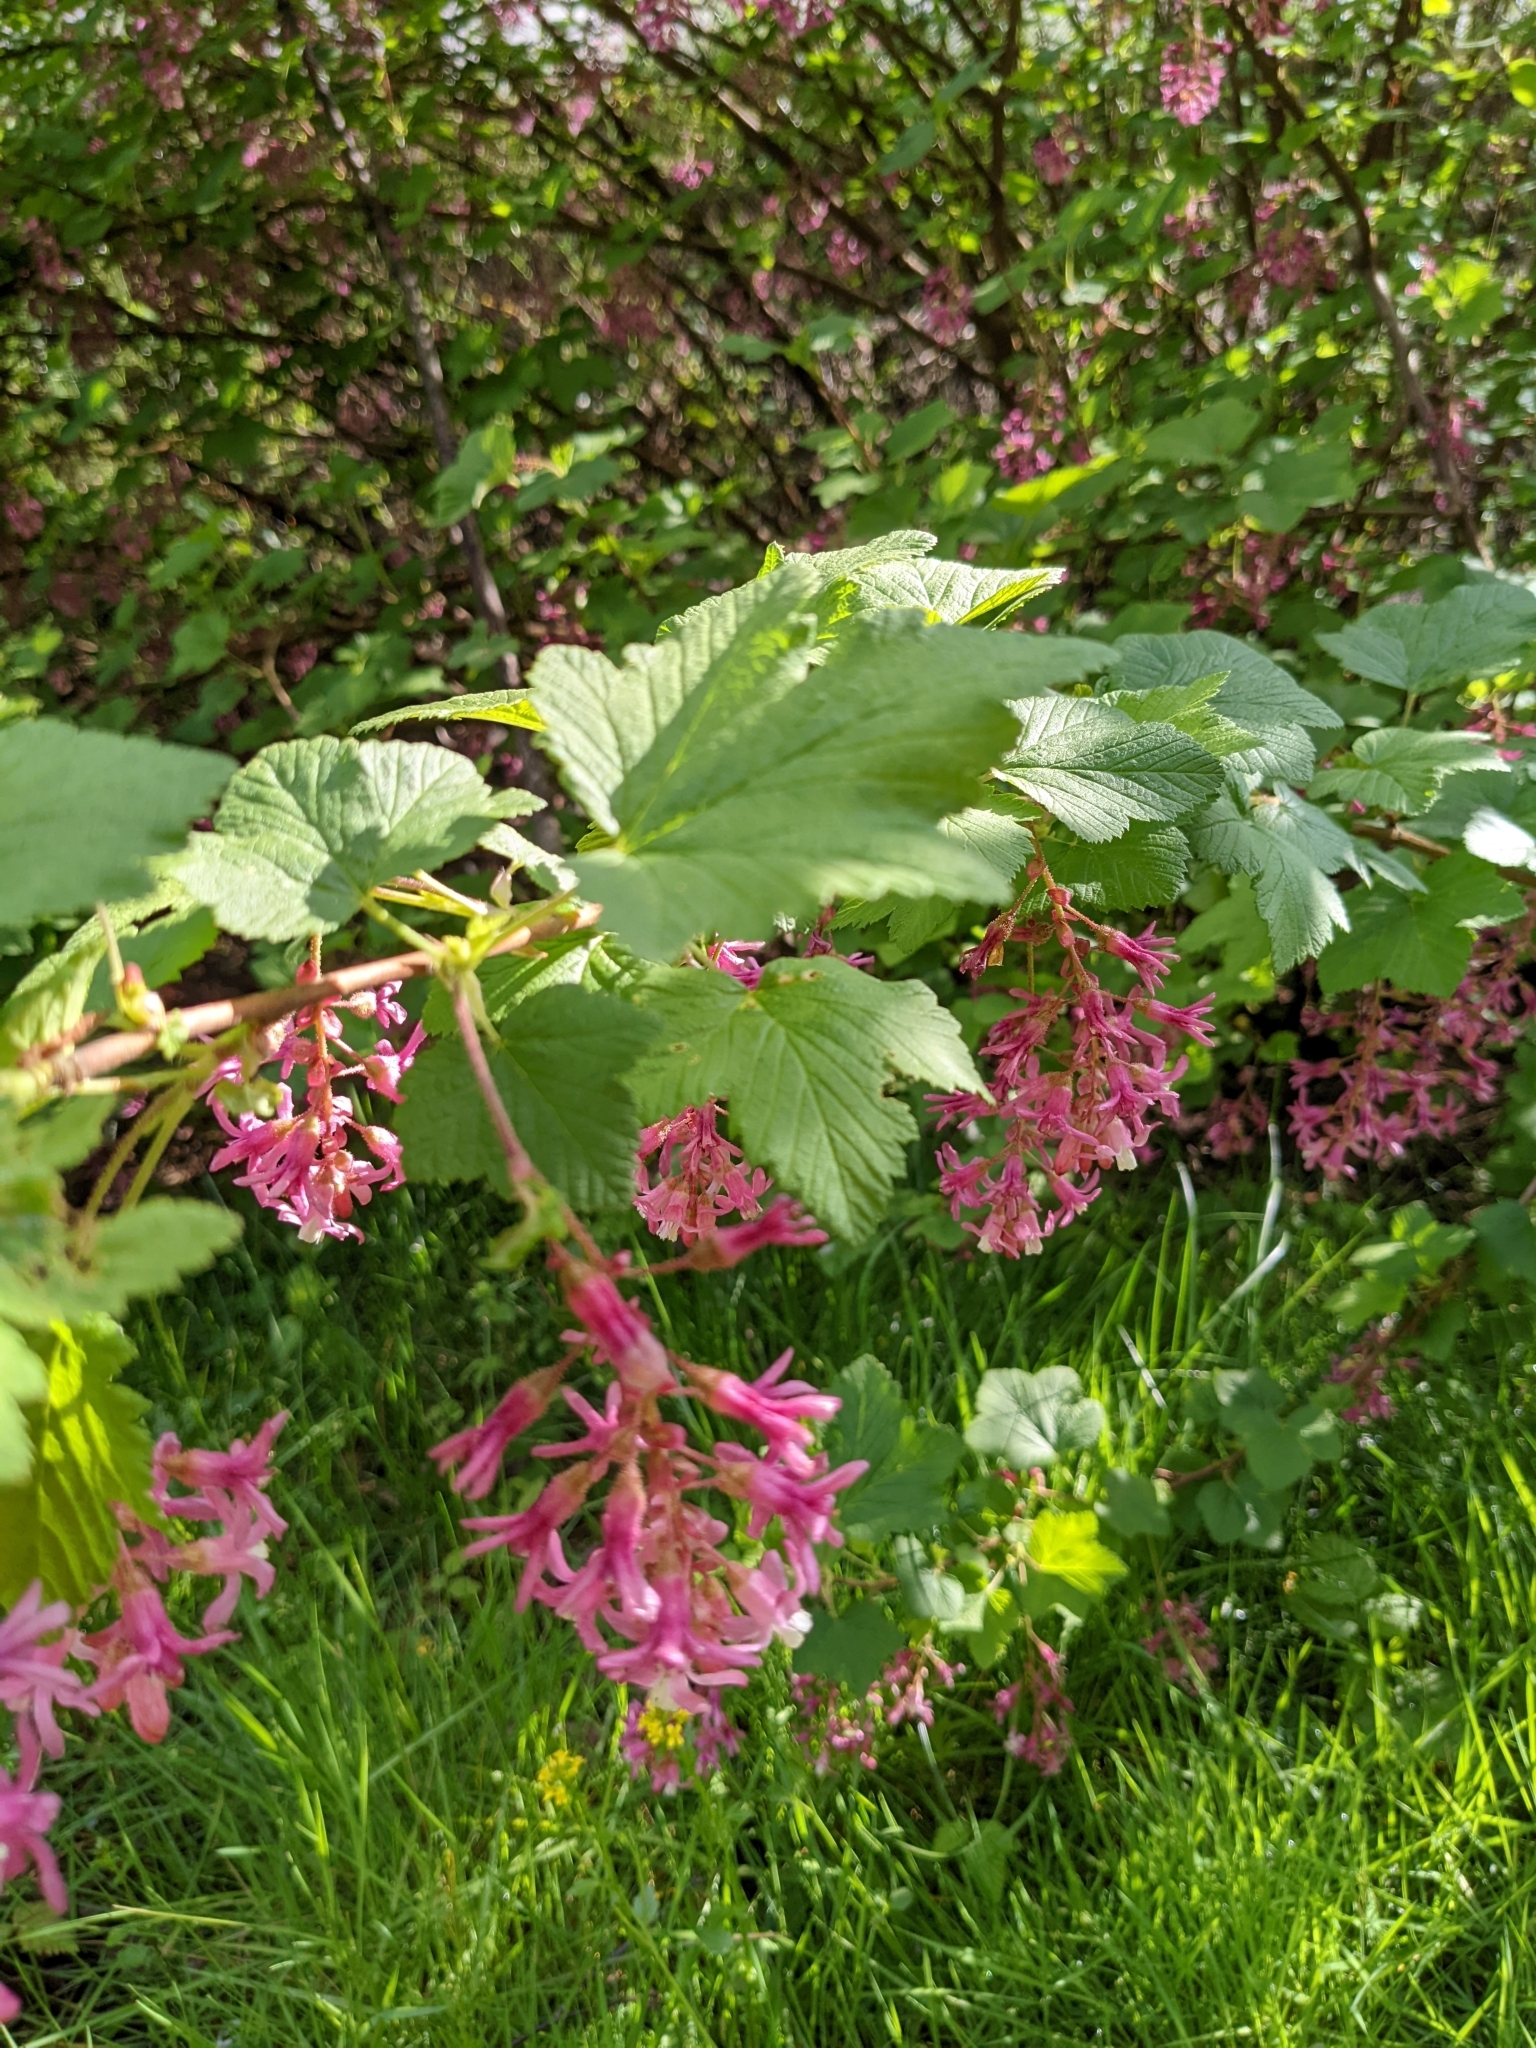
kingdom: Plantae
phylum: Tracheophyta
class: Magnoliopsida
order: Saxifragales
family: Grossulariaceae
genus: Ribes
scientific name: Ribes sanguineum
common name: Flowering currant
